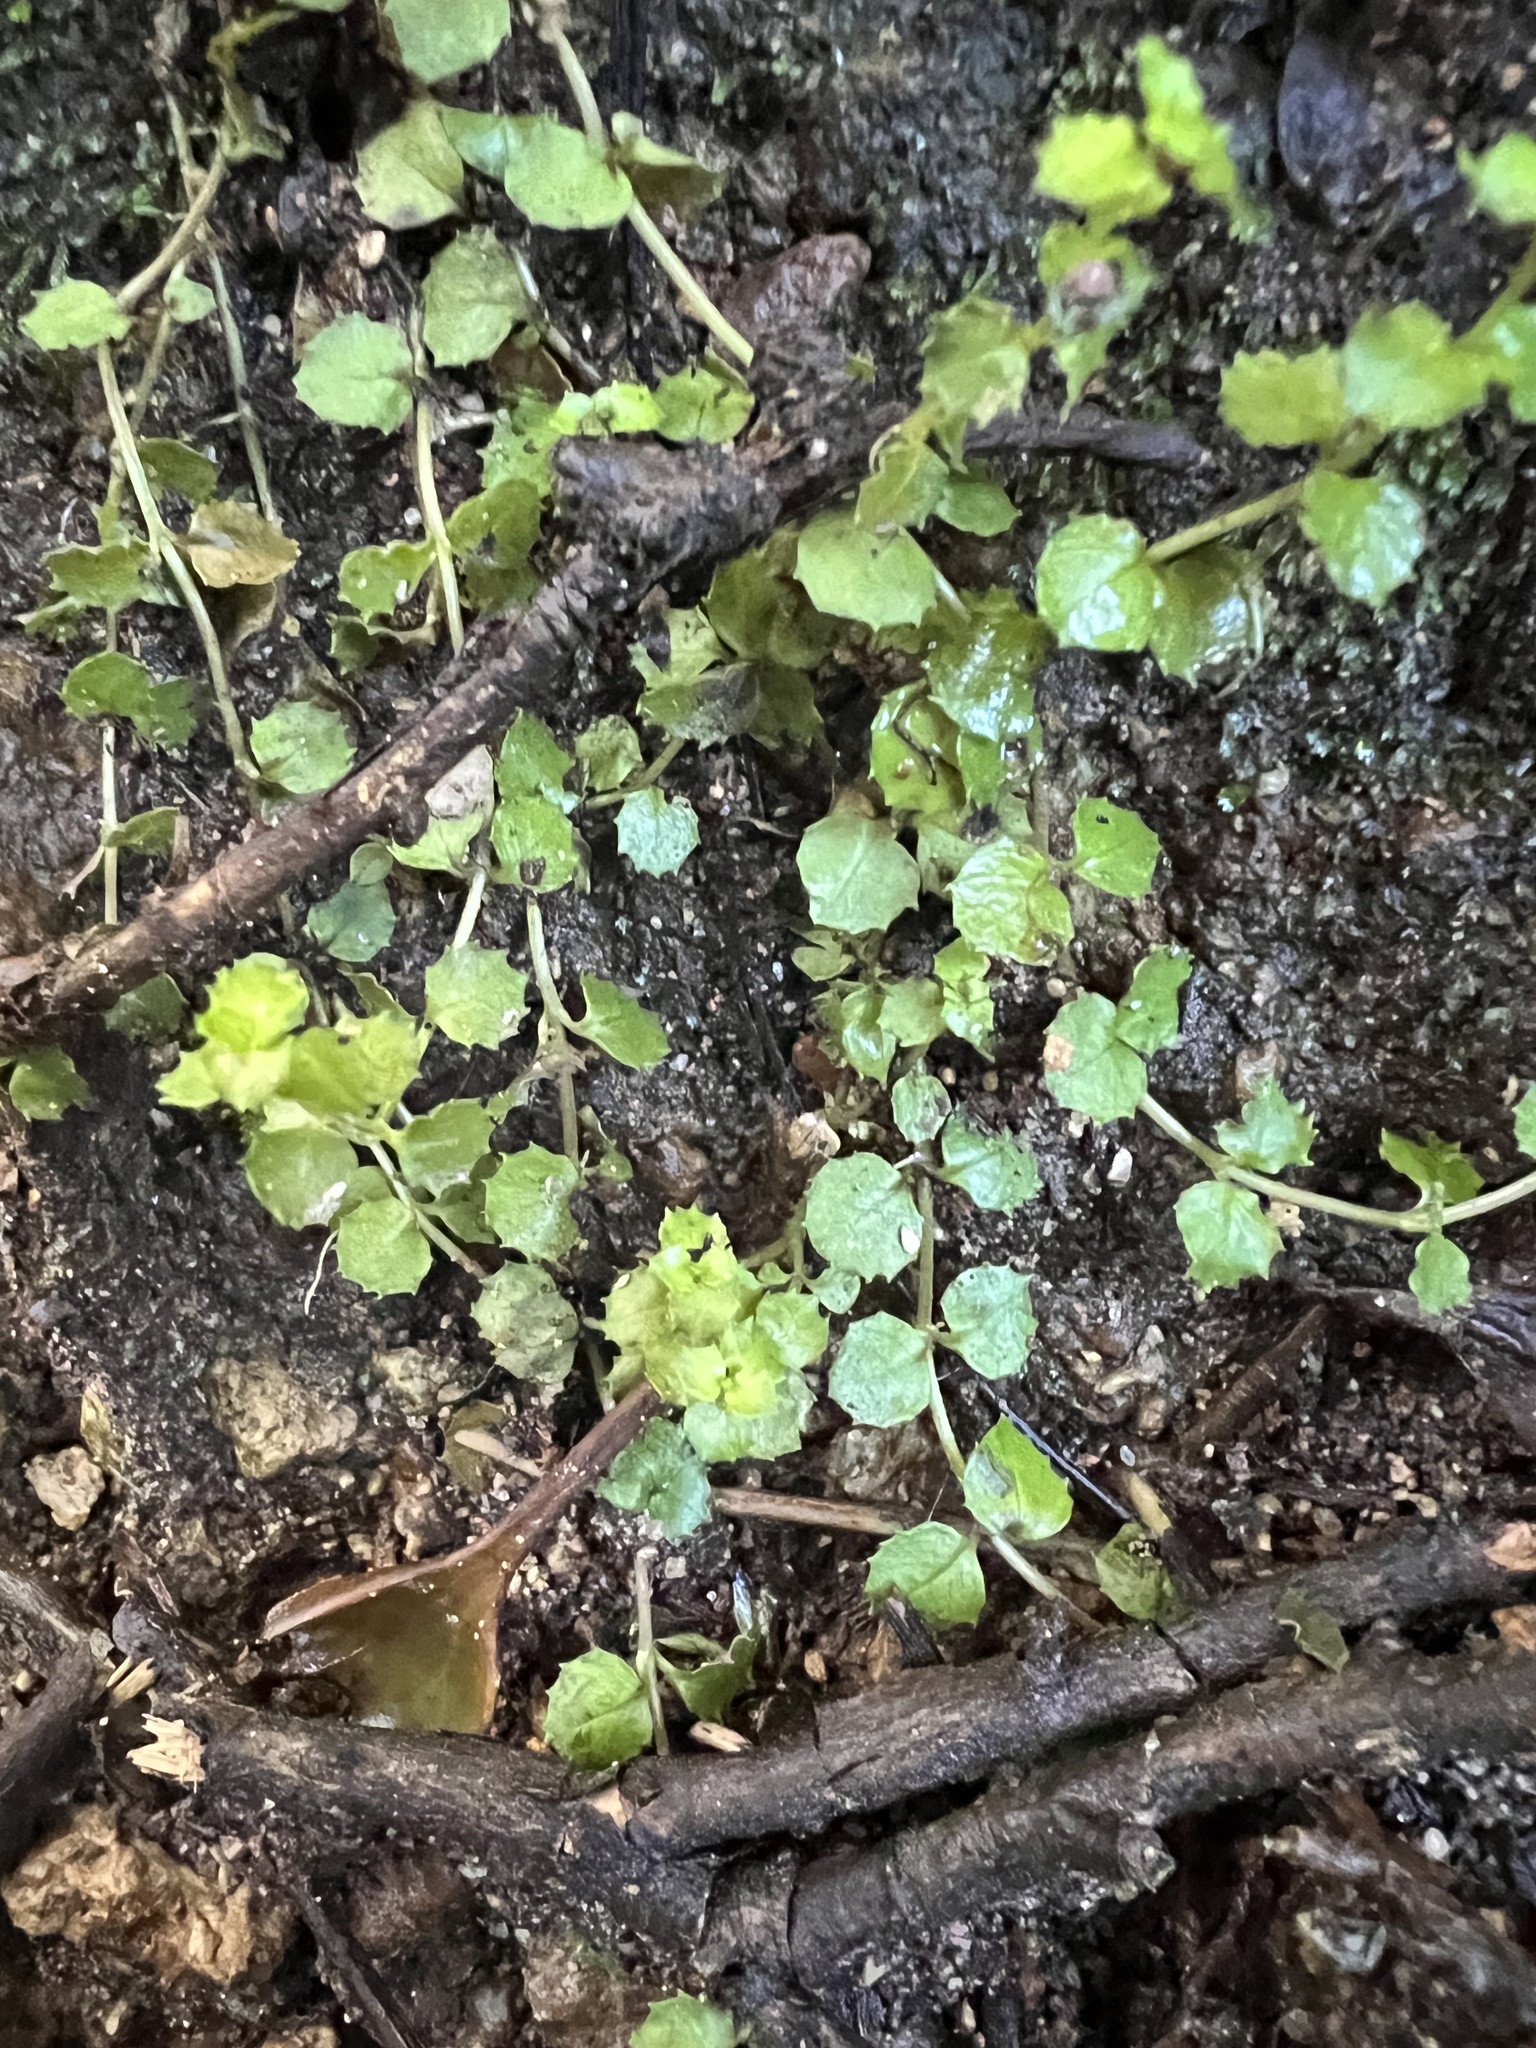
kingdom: Plantae
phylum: Tracheophyta
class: Magnoliopsida
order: Myrtales
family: Onagraceae
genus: Epilobium
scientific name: Epilobium pedunculare
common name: Rockery willowherb
